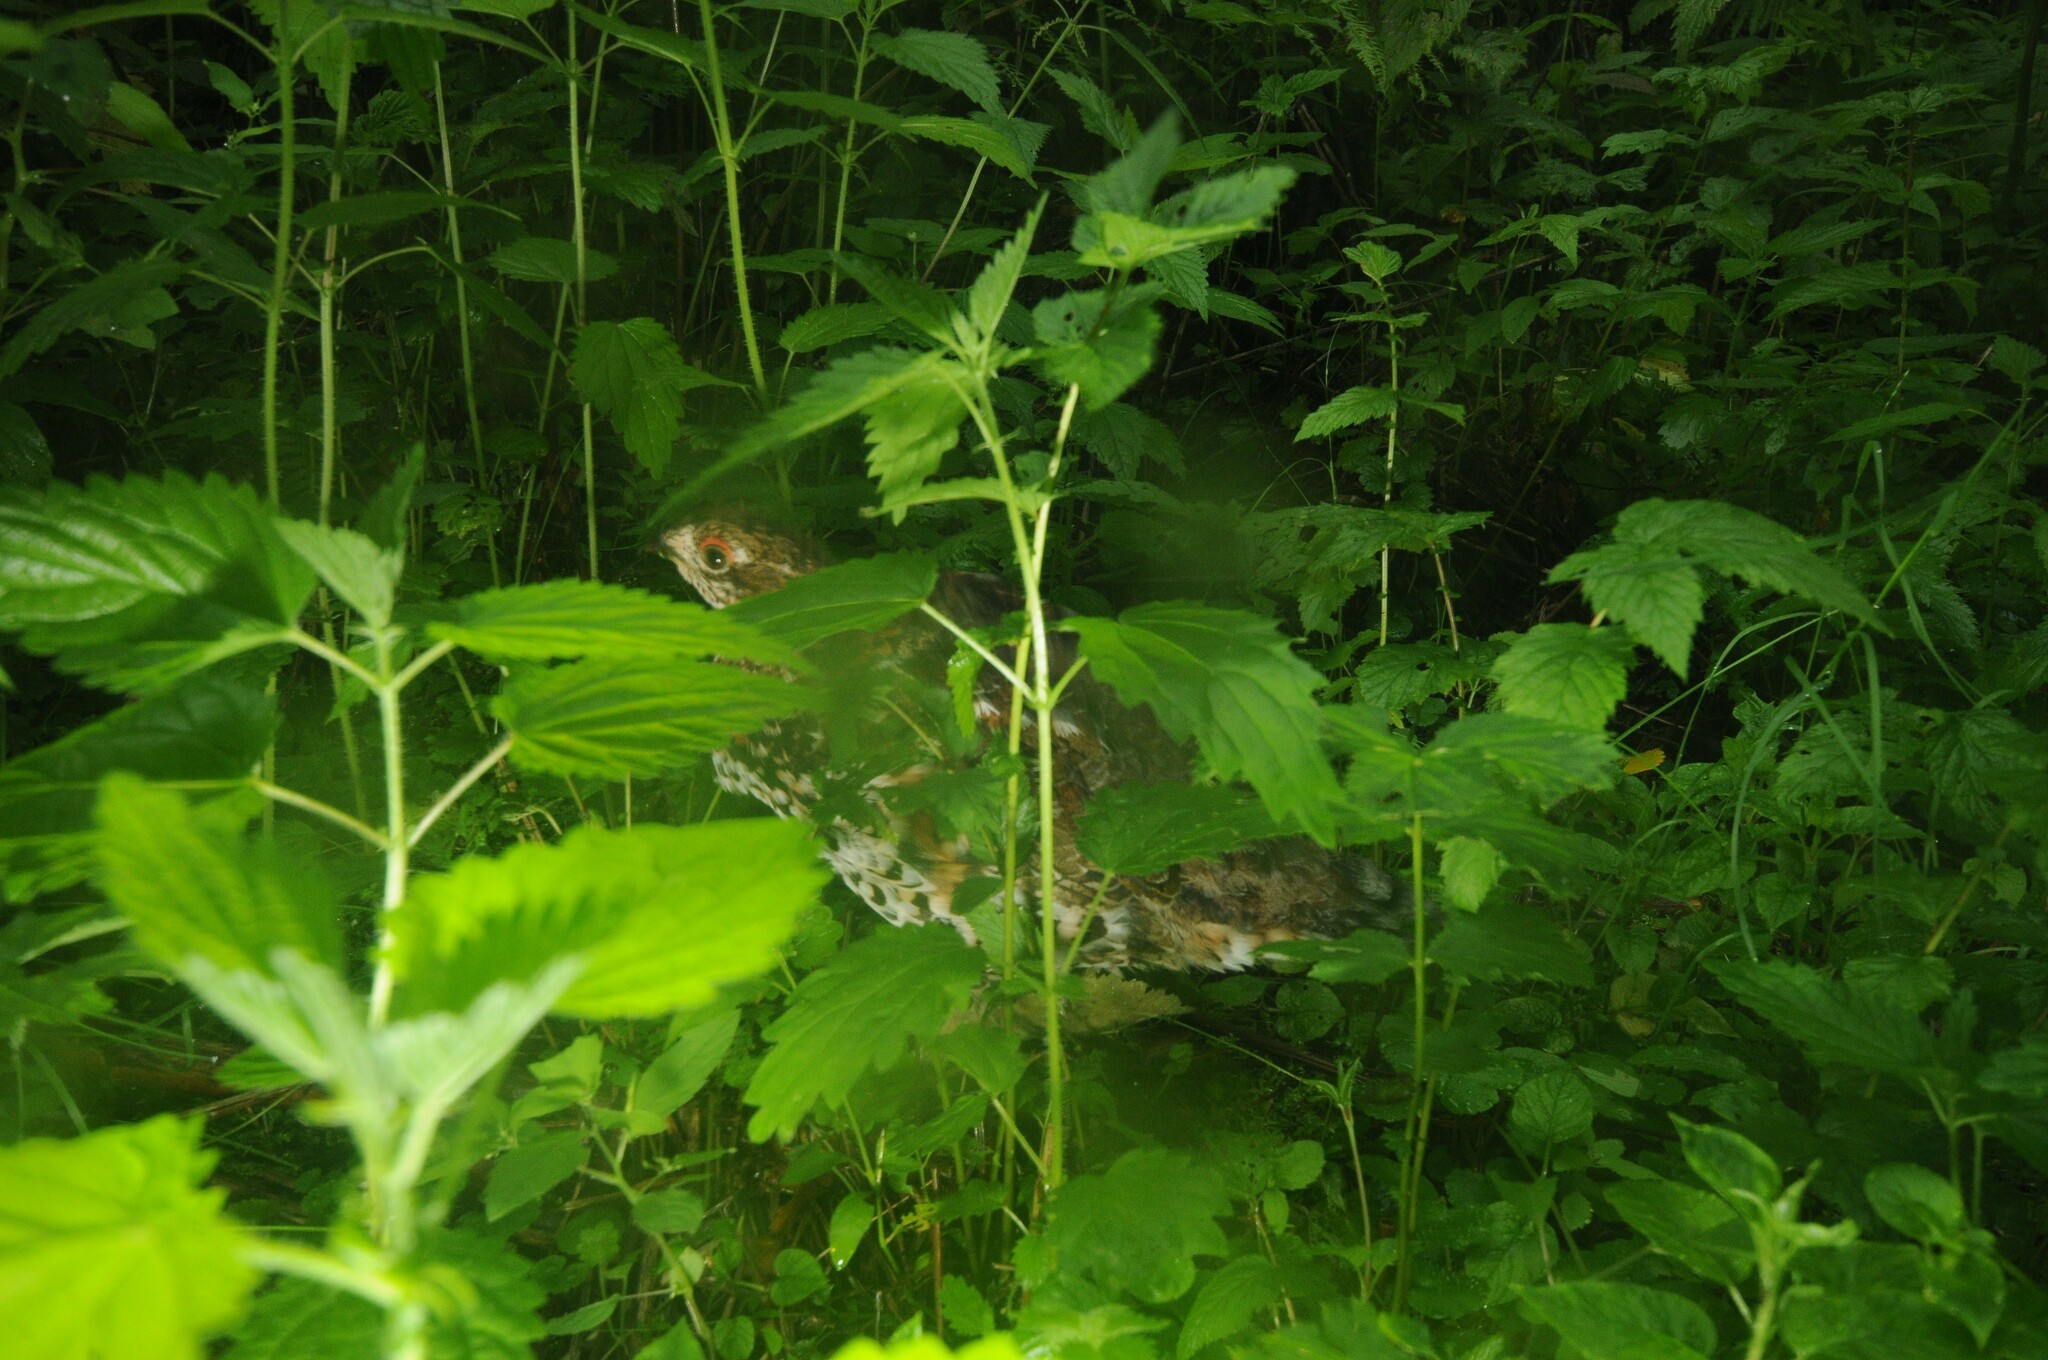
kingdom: Animalia
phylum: Chordata
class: Aves
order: Galliformes
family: Phasianidae
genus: Tetrastes
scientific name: Tetrastes bonasia
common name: Hazel grouse
